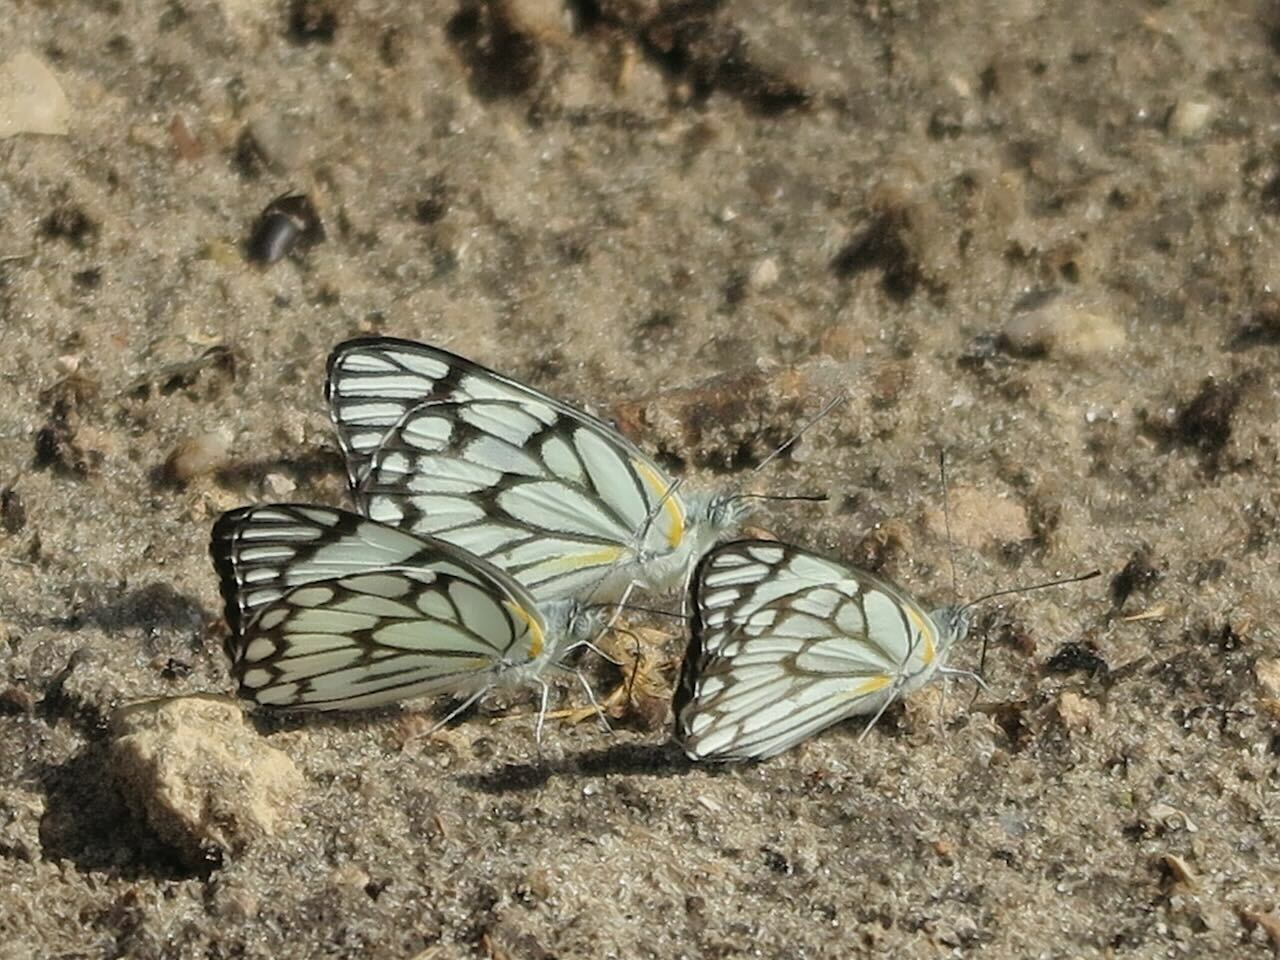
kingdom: Animalia
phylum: Arthropoda
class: Insecta
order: Lepidoptera
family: Pieridae
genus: Belenois
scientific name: Belenois aurota
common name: Brown-veined white
